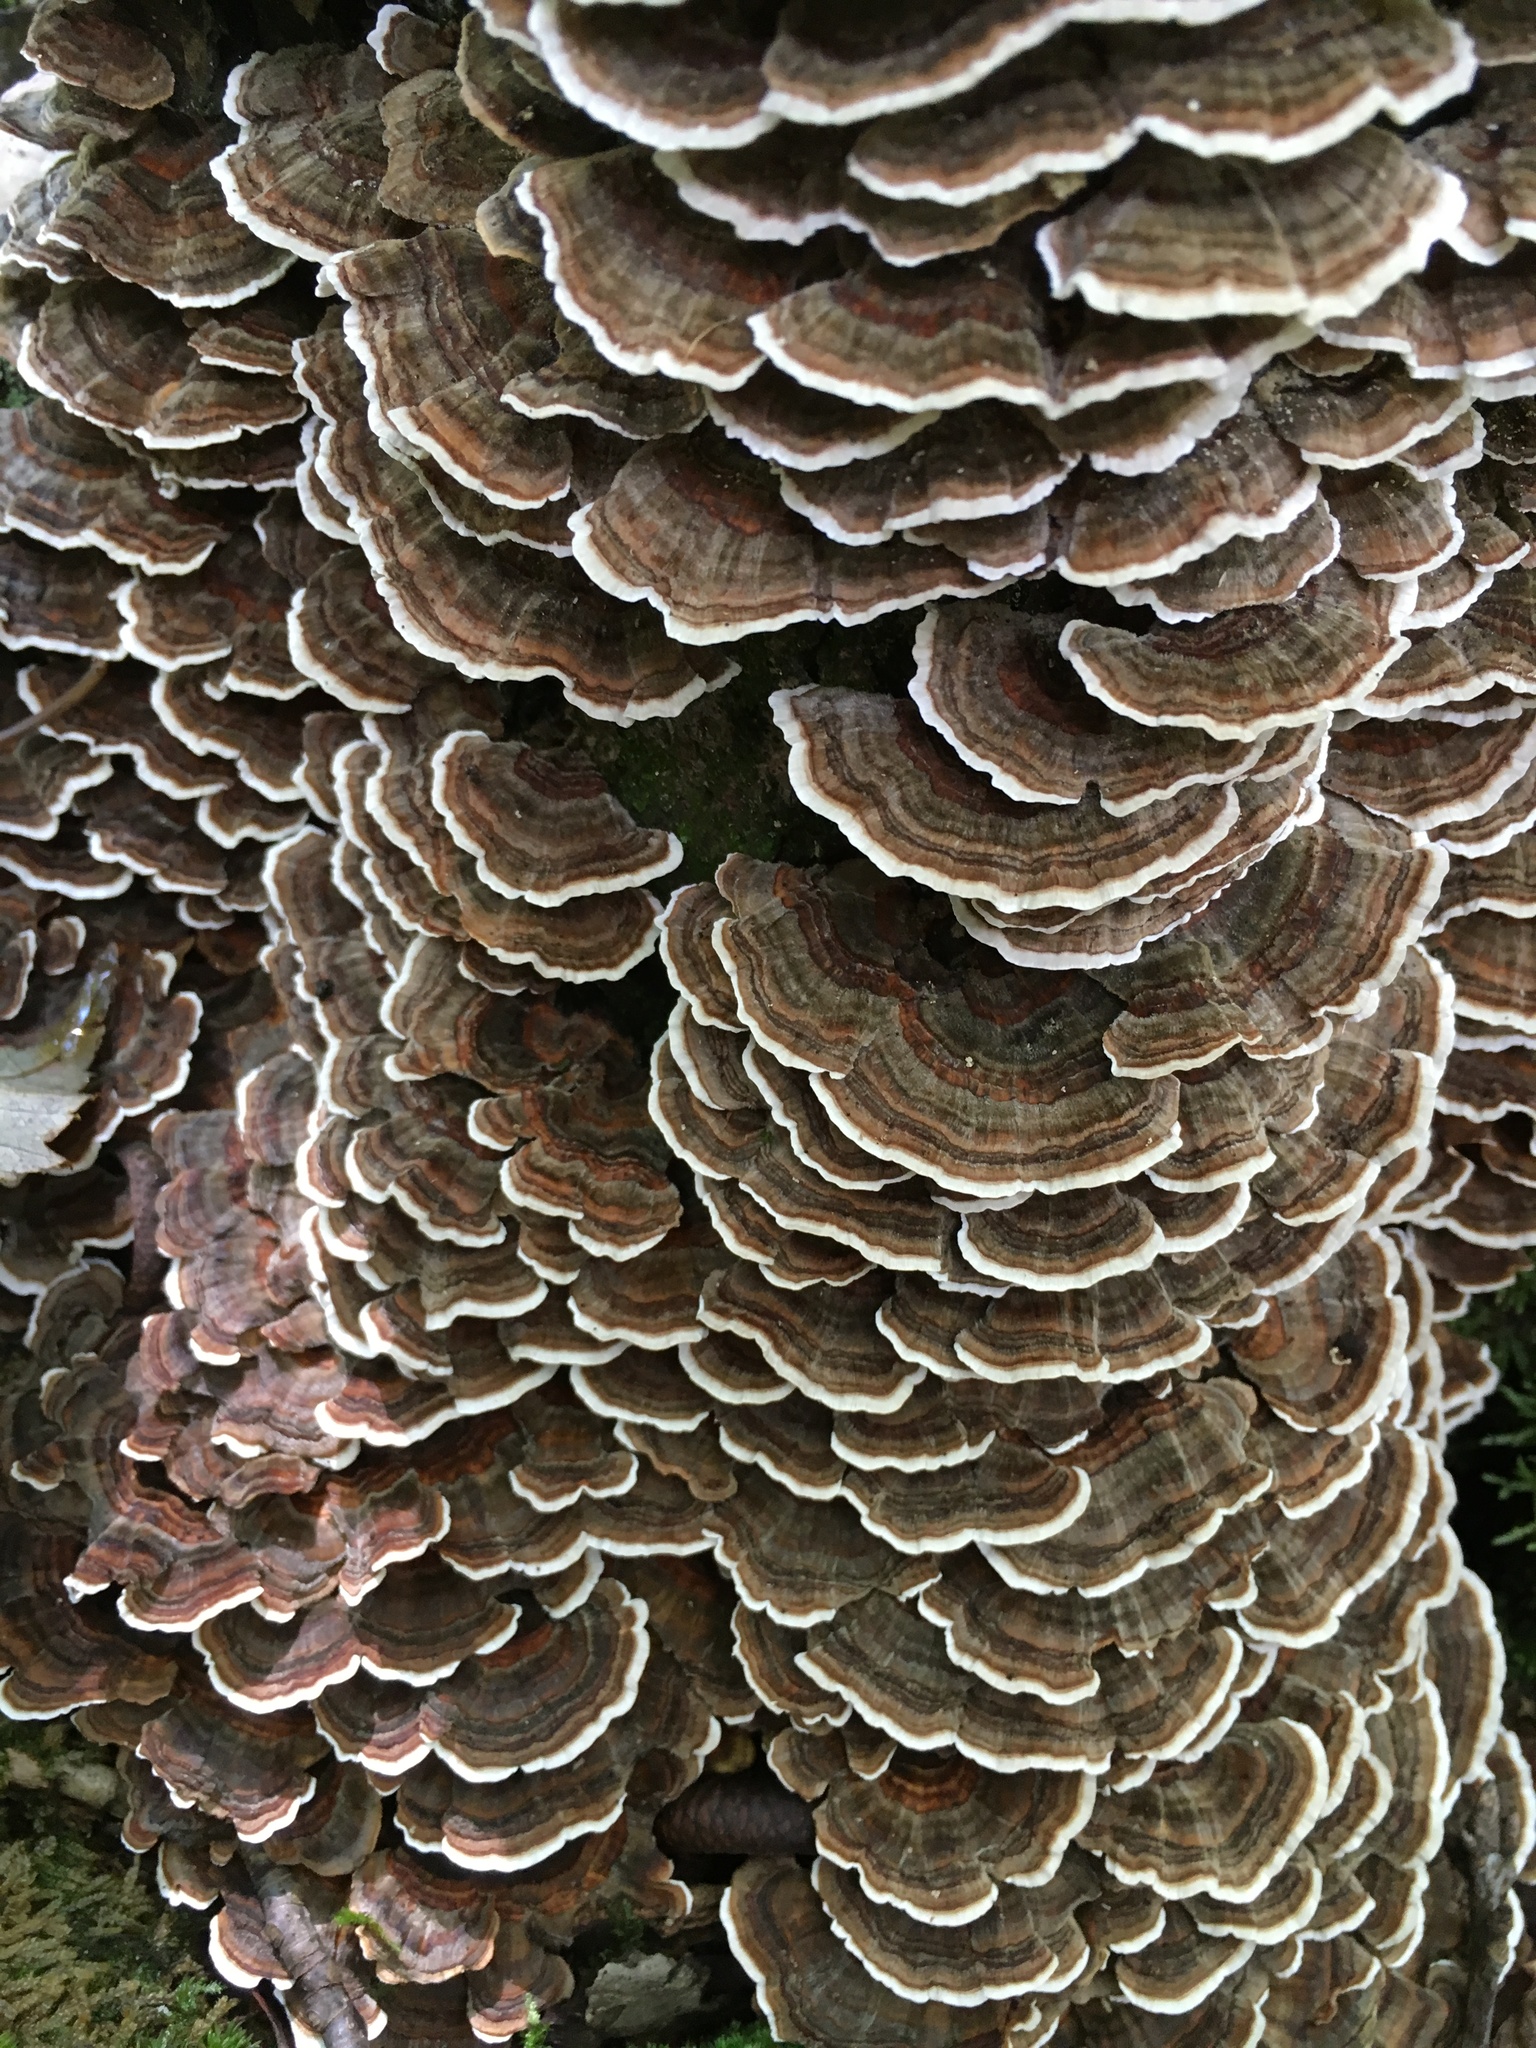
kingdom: Fungi
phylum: Basidiomycota
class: Agaricomycetes
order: Polyporales
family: Polyporaceae
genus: Trametes
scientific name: Trametes versicolor
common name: Turkeytail
